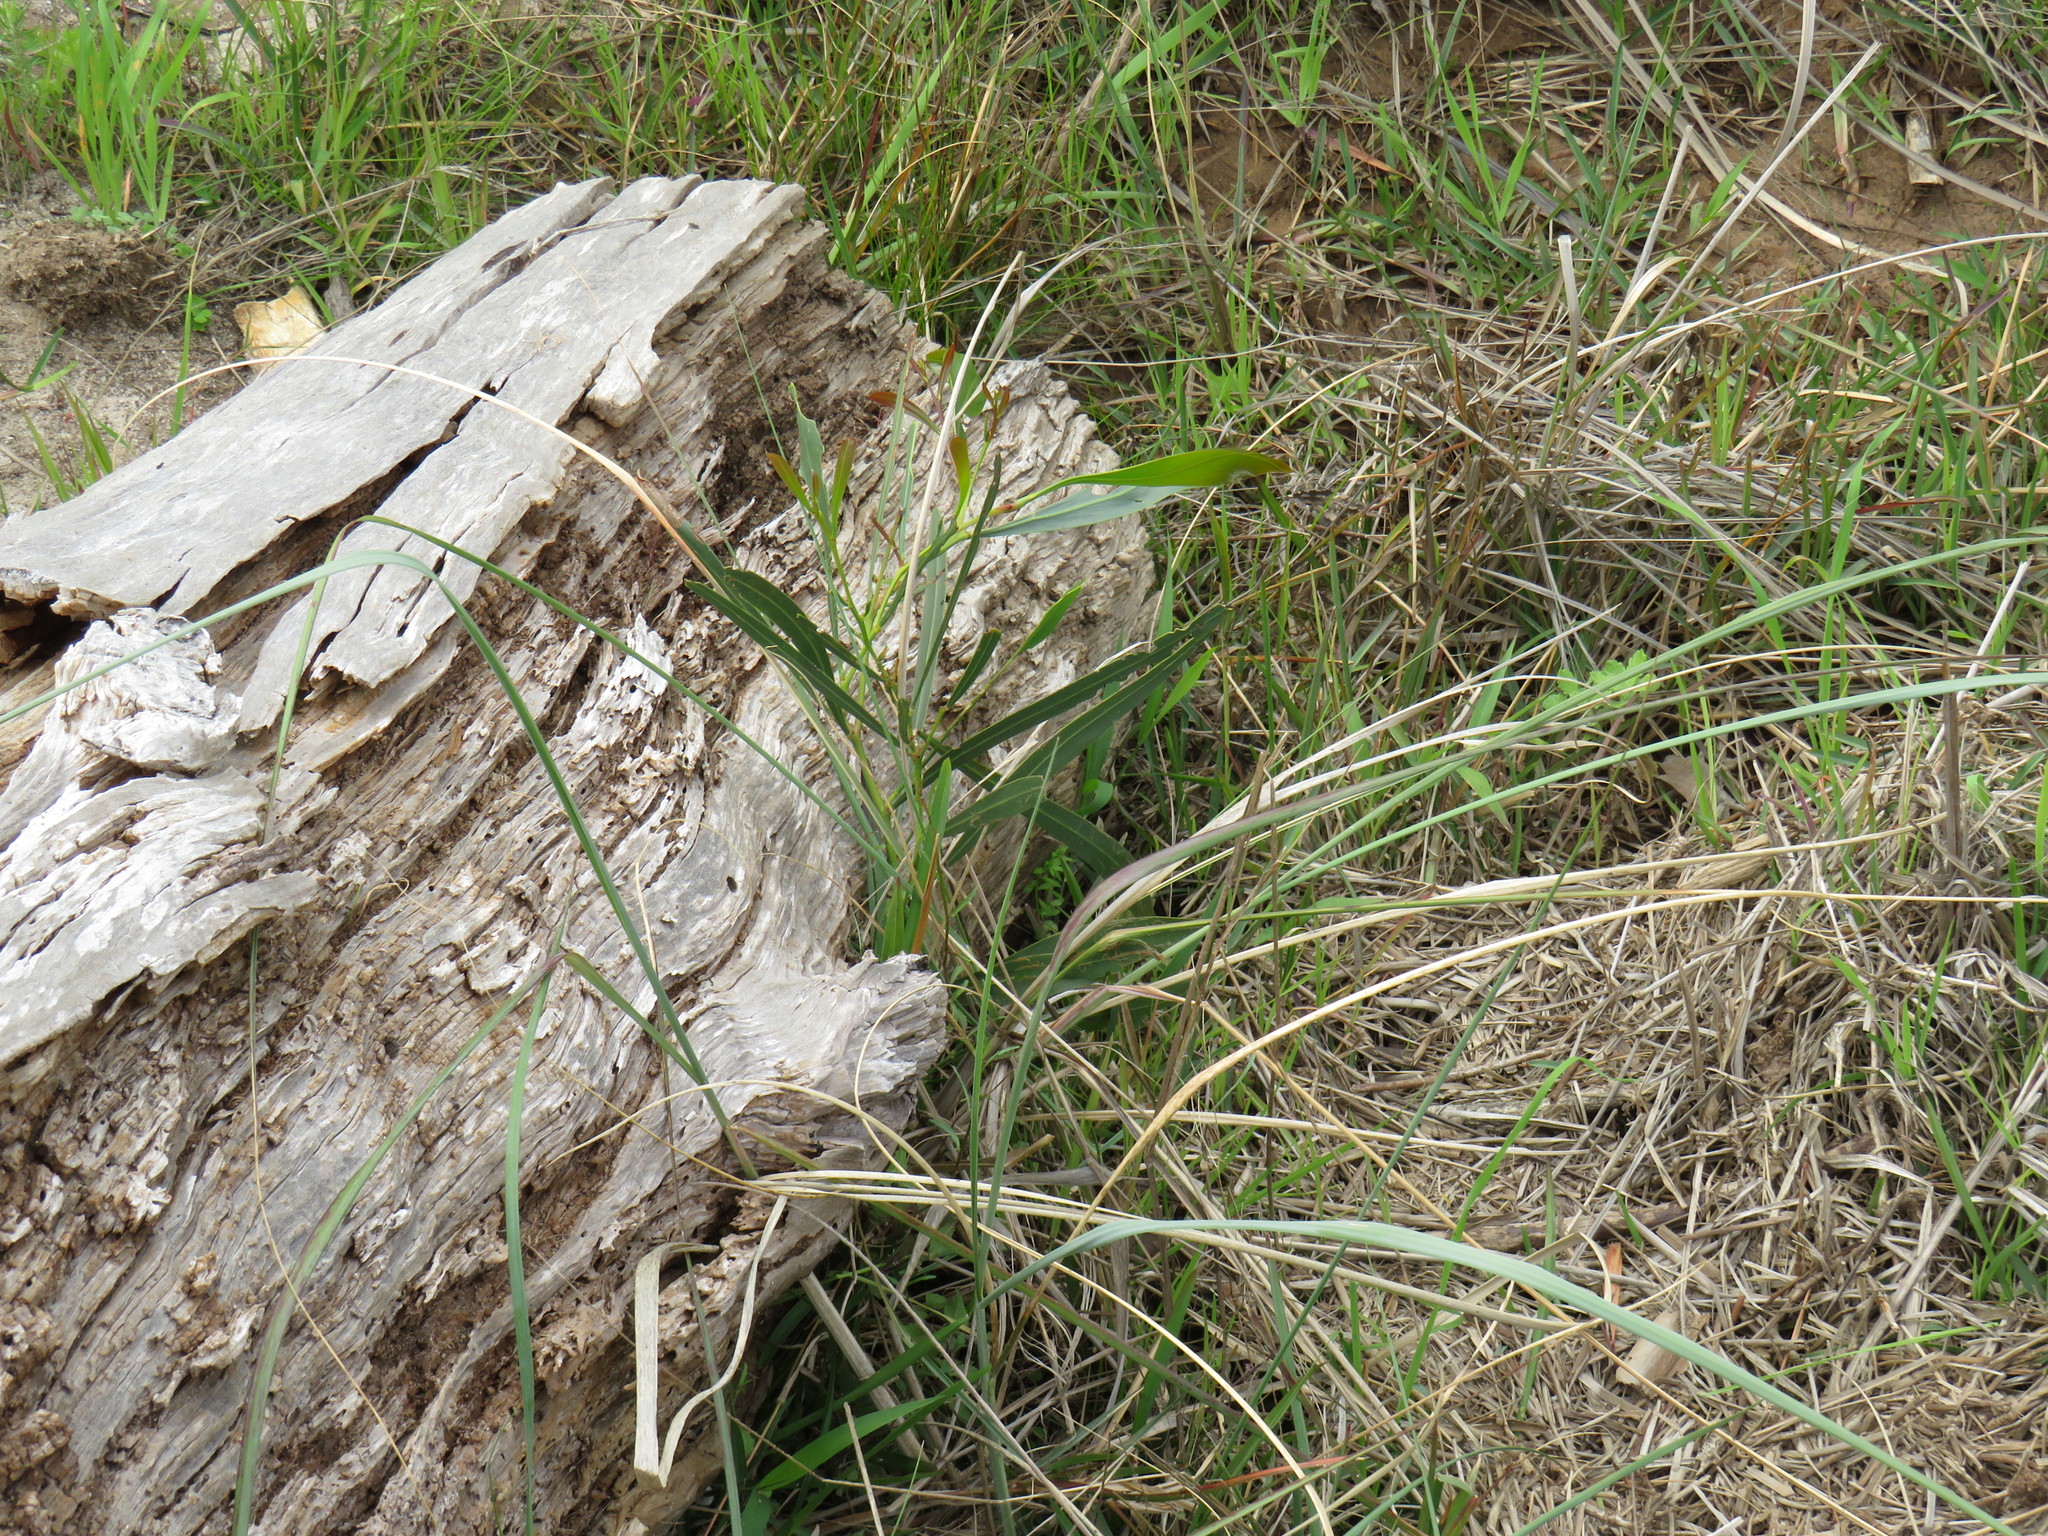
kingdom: Plantae
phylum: Tracheophyta
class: Magnoliopsida
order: Fabales
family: Fabaceae
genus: Acacia
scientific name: Acacia saligna
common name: Orange wattle
